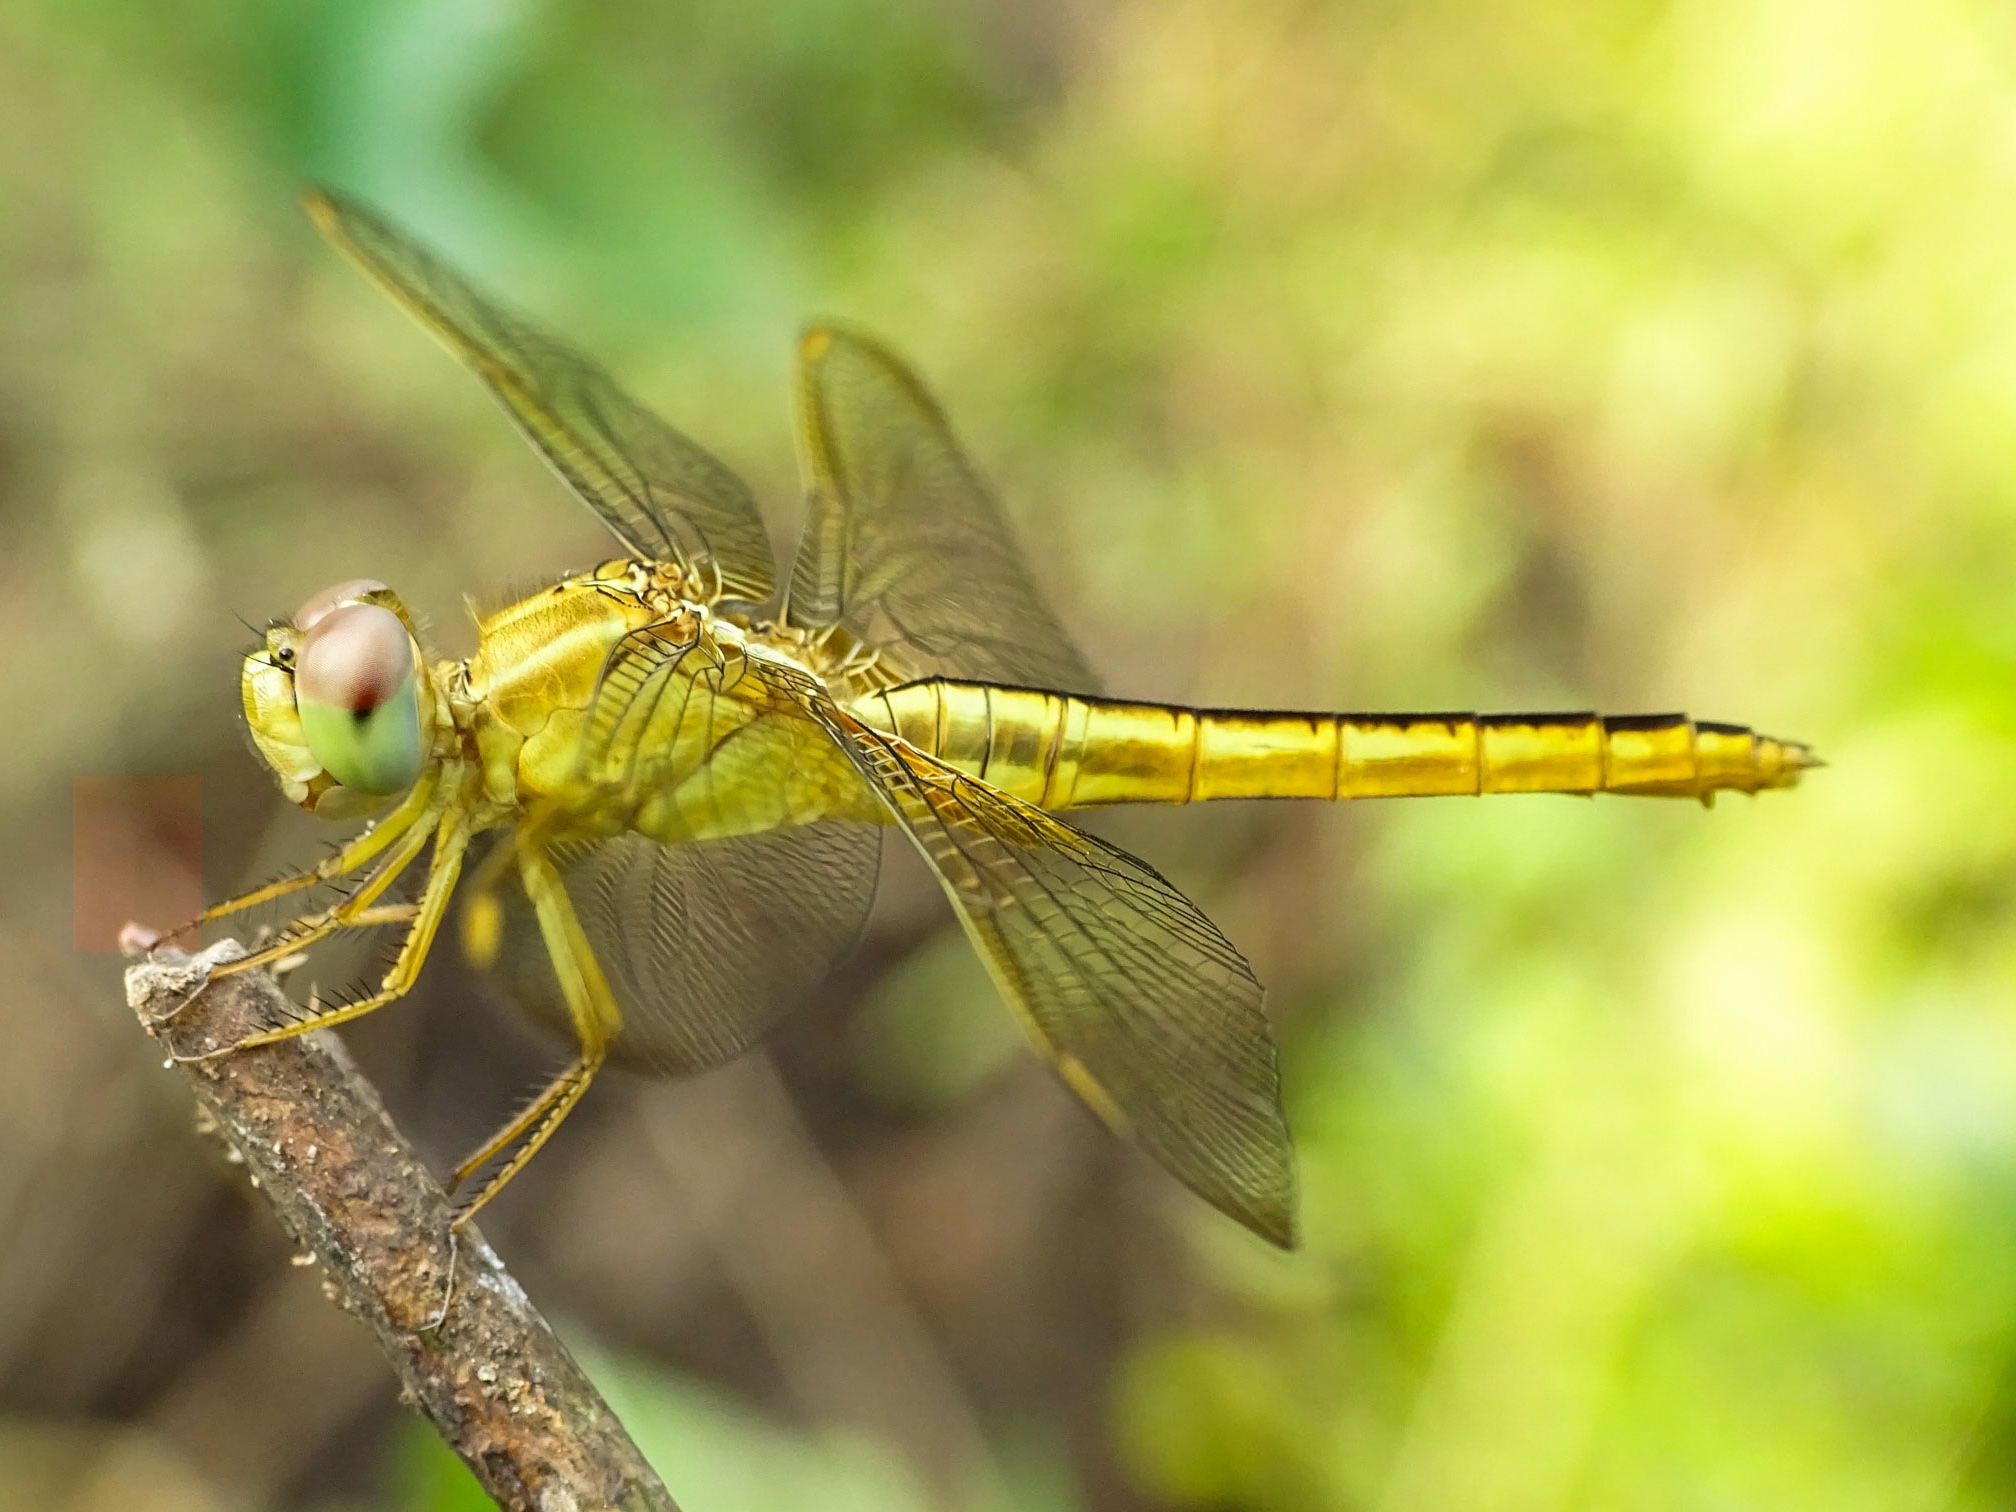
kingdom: Animalia
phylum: Arthropoda
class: Insecta
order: Odonata
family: Libellulidae
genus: Crocothemis
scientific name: Crocothemis servilia
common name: Scarlet skimmer
